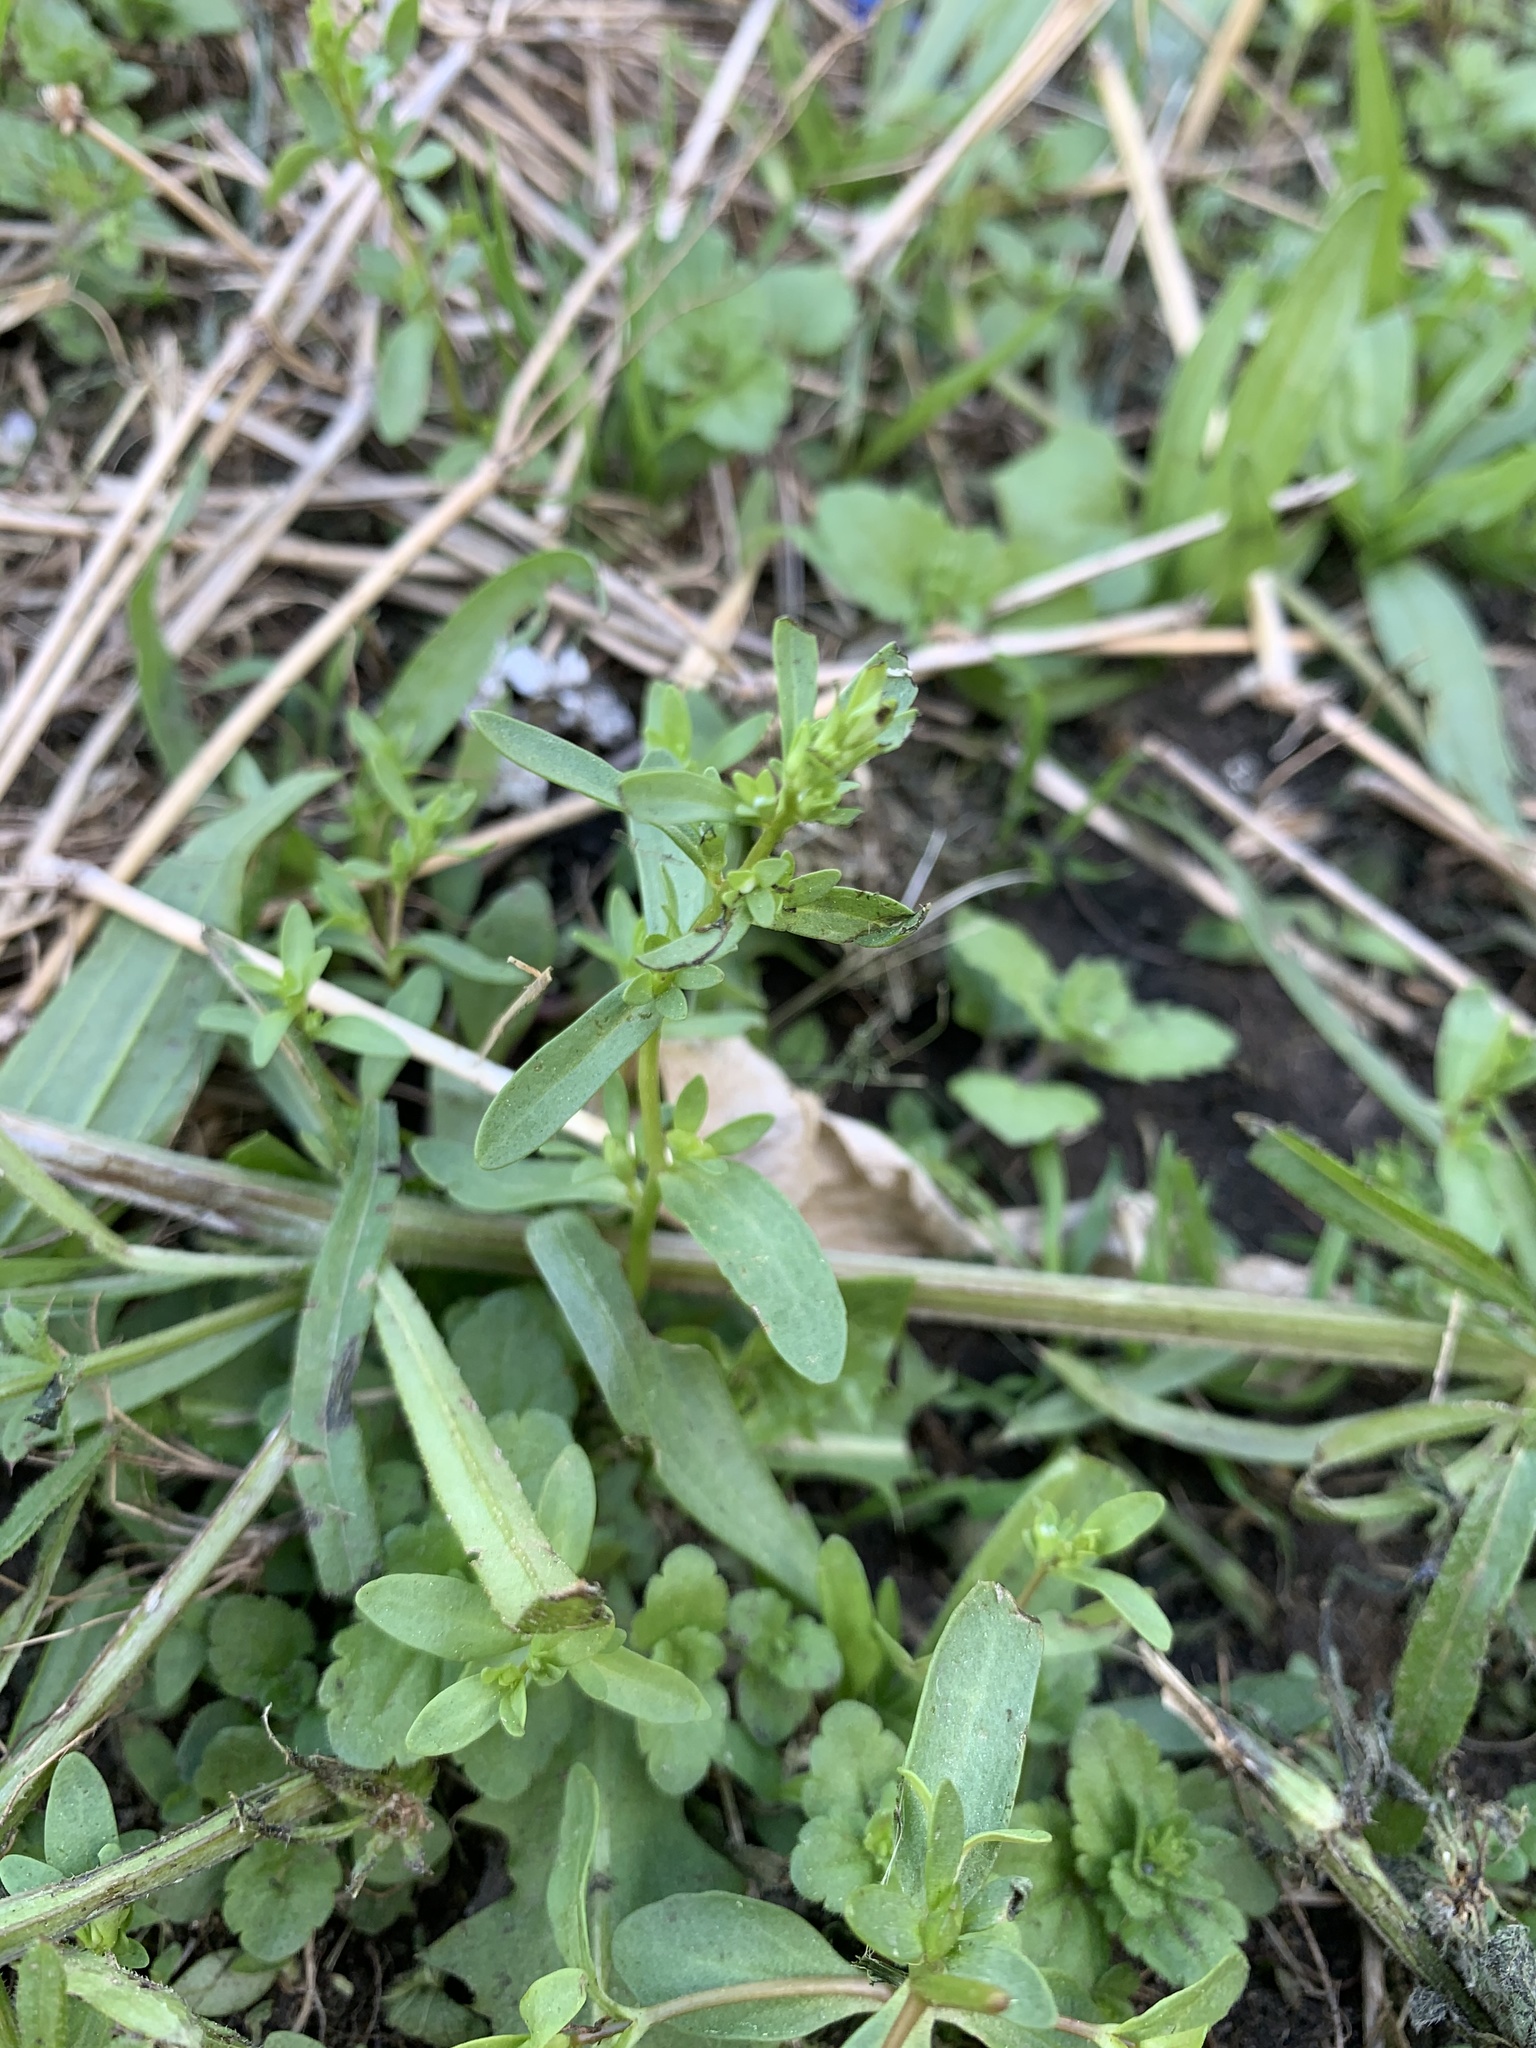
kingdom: Plantae
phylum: Tracheophyta
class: Magnoliopsida
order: Lamiales
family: Plantaginaceae
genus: Veronica
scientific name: Veronica peregrina
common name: Neckweed
